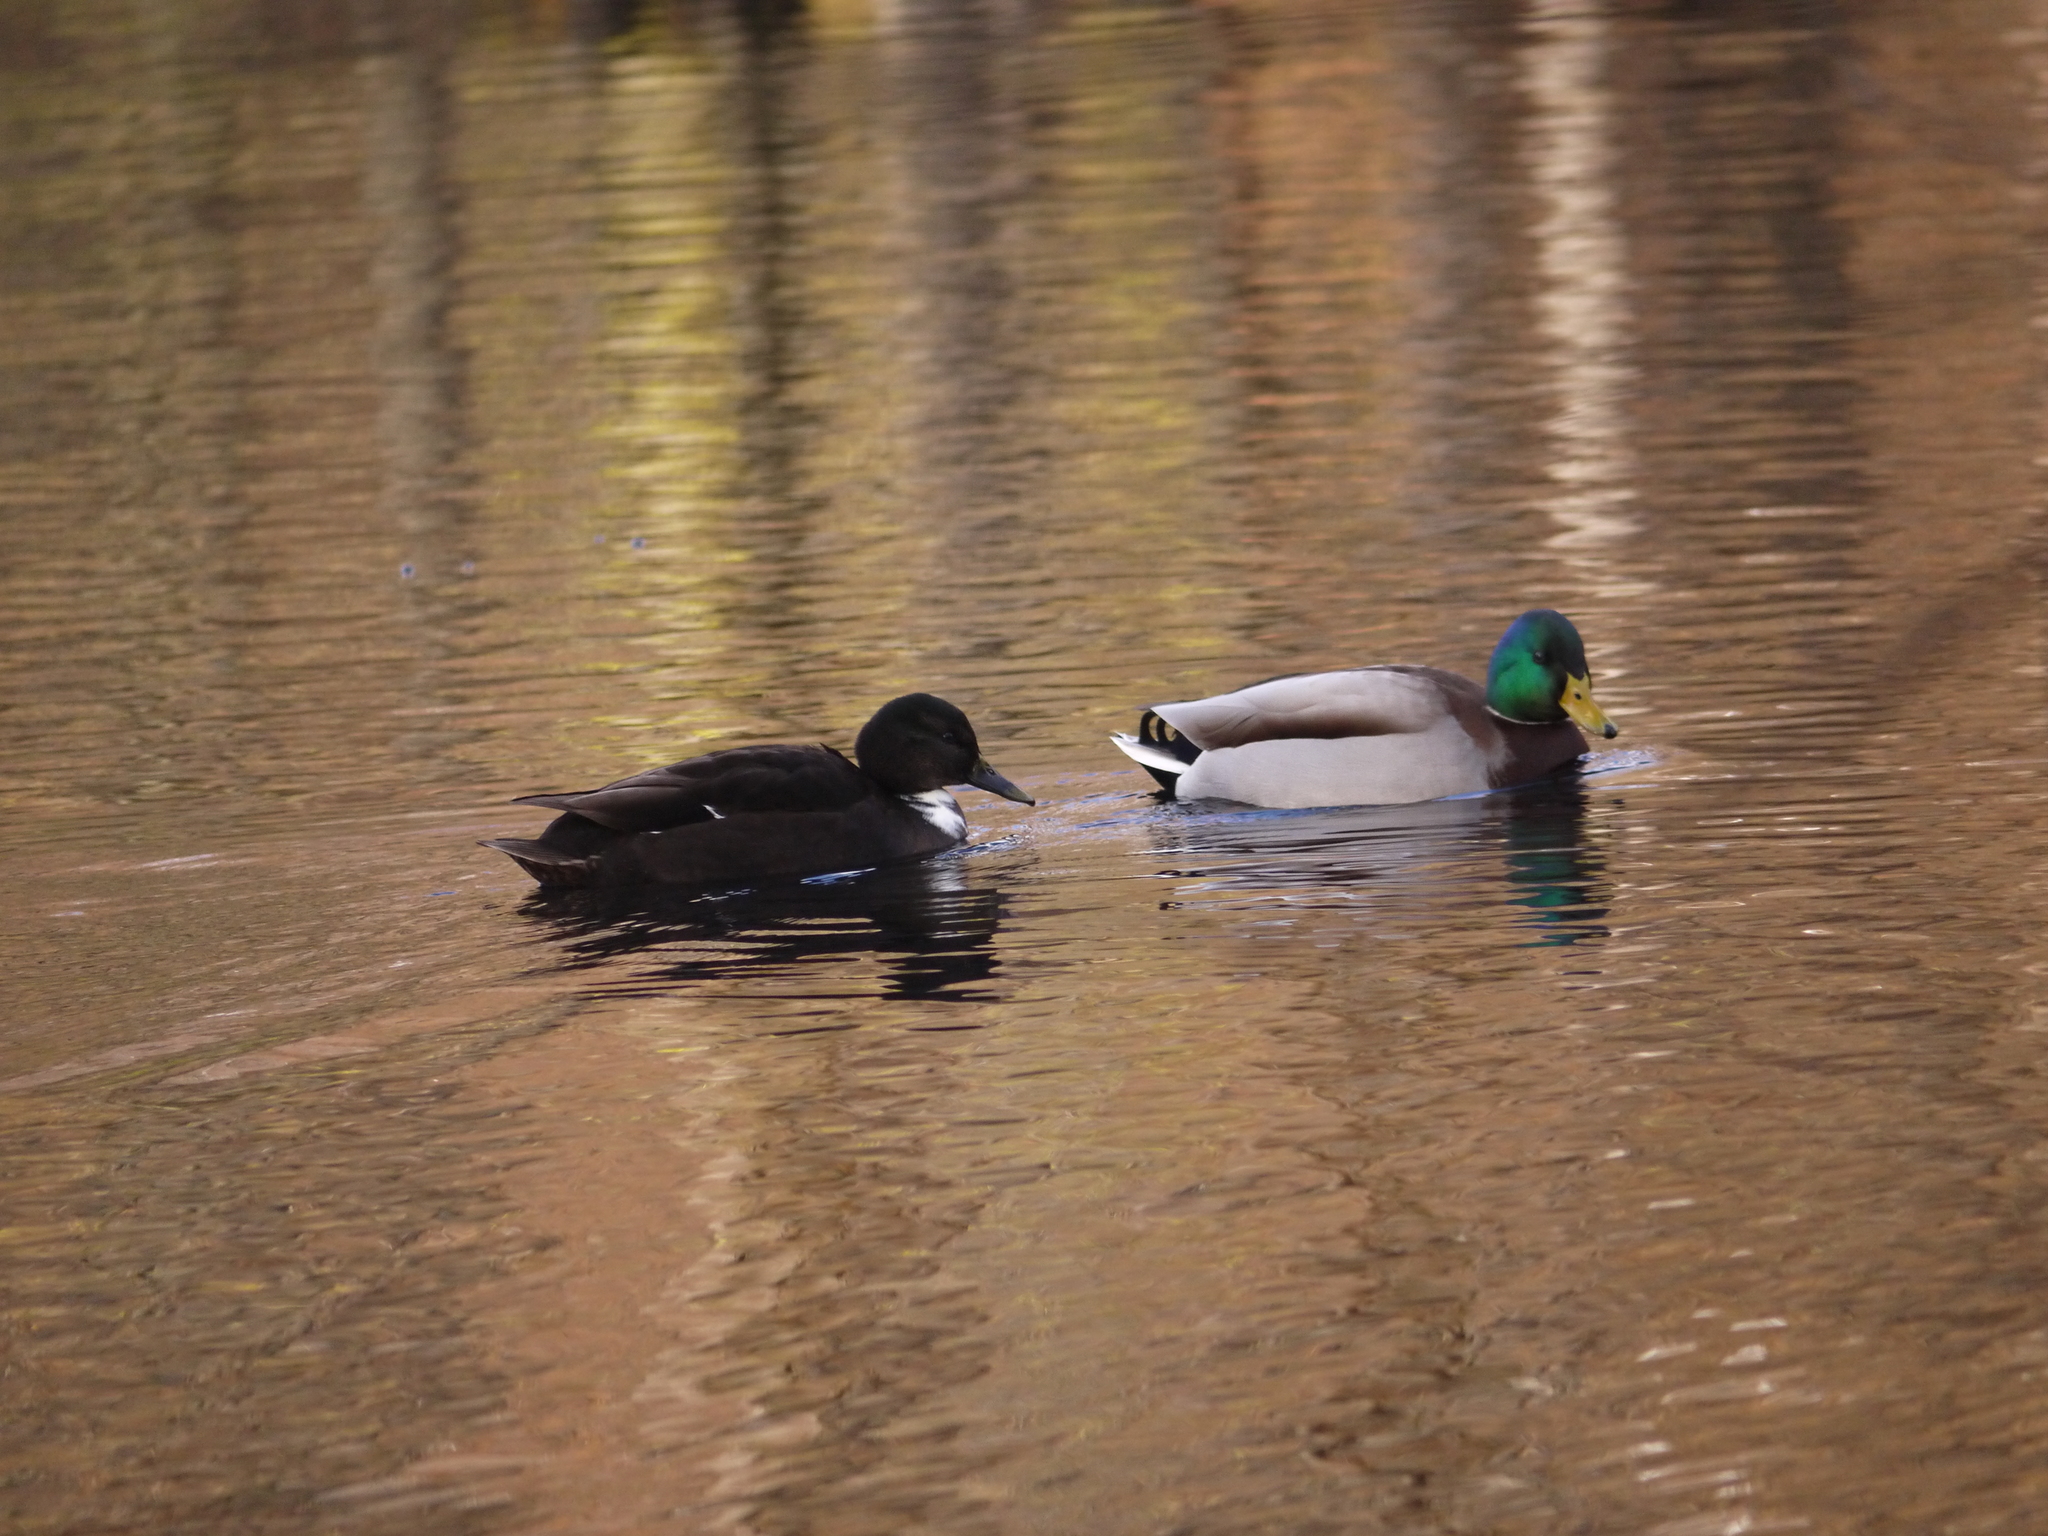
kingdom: Animalia
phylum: Chordata
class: Aves
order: Anseriformes
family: Anatidae
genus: Anas
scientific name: Anas platyrhynchos
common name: Mallard
